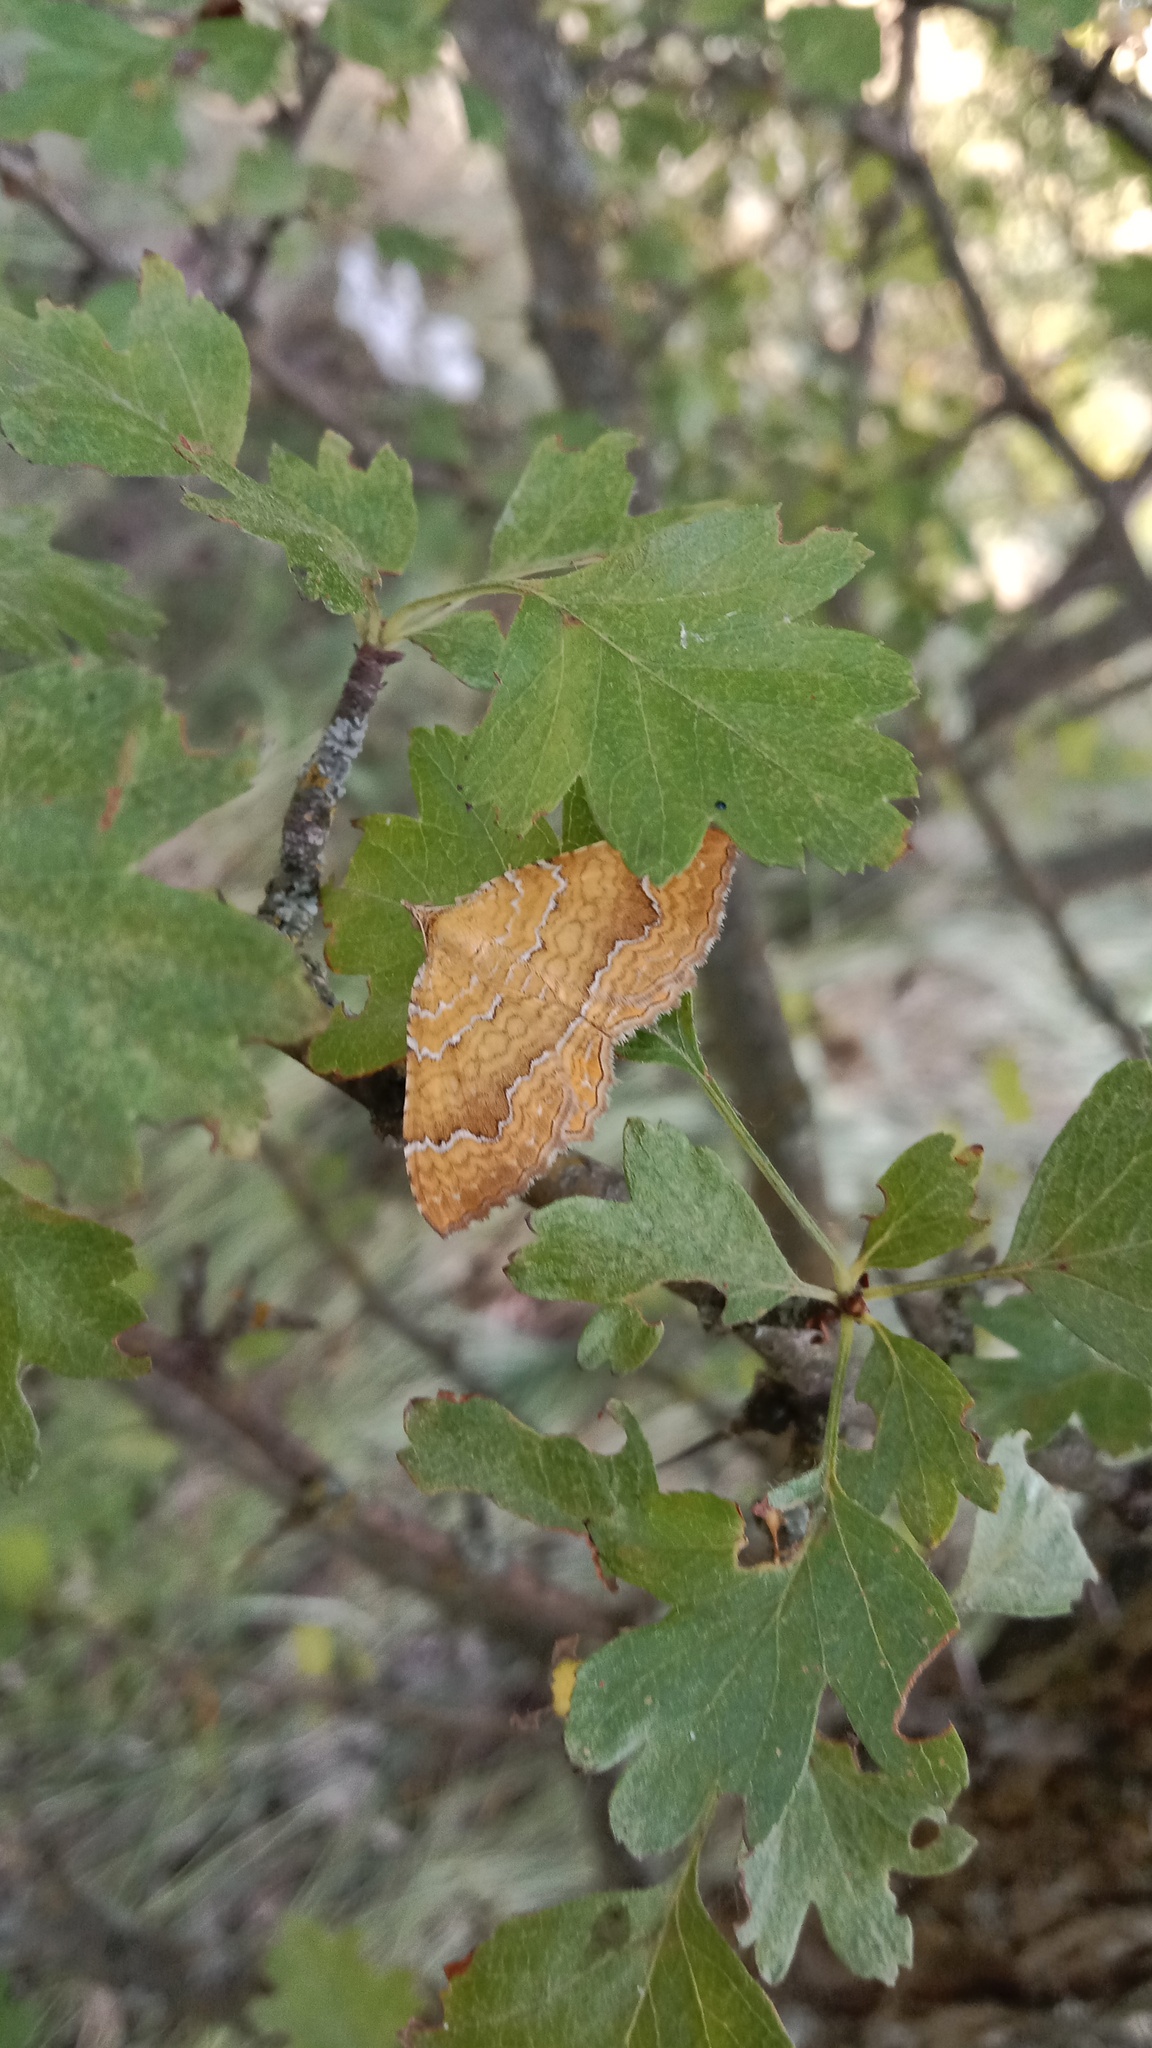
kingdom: Animalia
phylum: Arthropoda
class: Insecta
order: Lepidoptera
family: Geometridae
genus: Camptogramma
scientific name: Camptogramma bilineata
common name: Yellow shell
